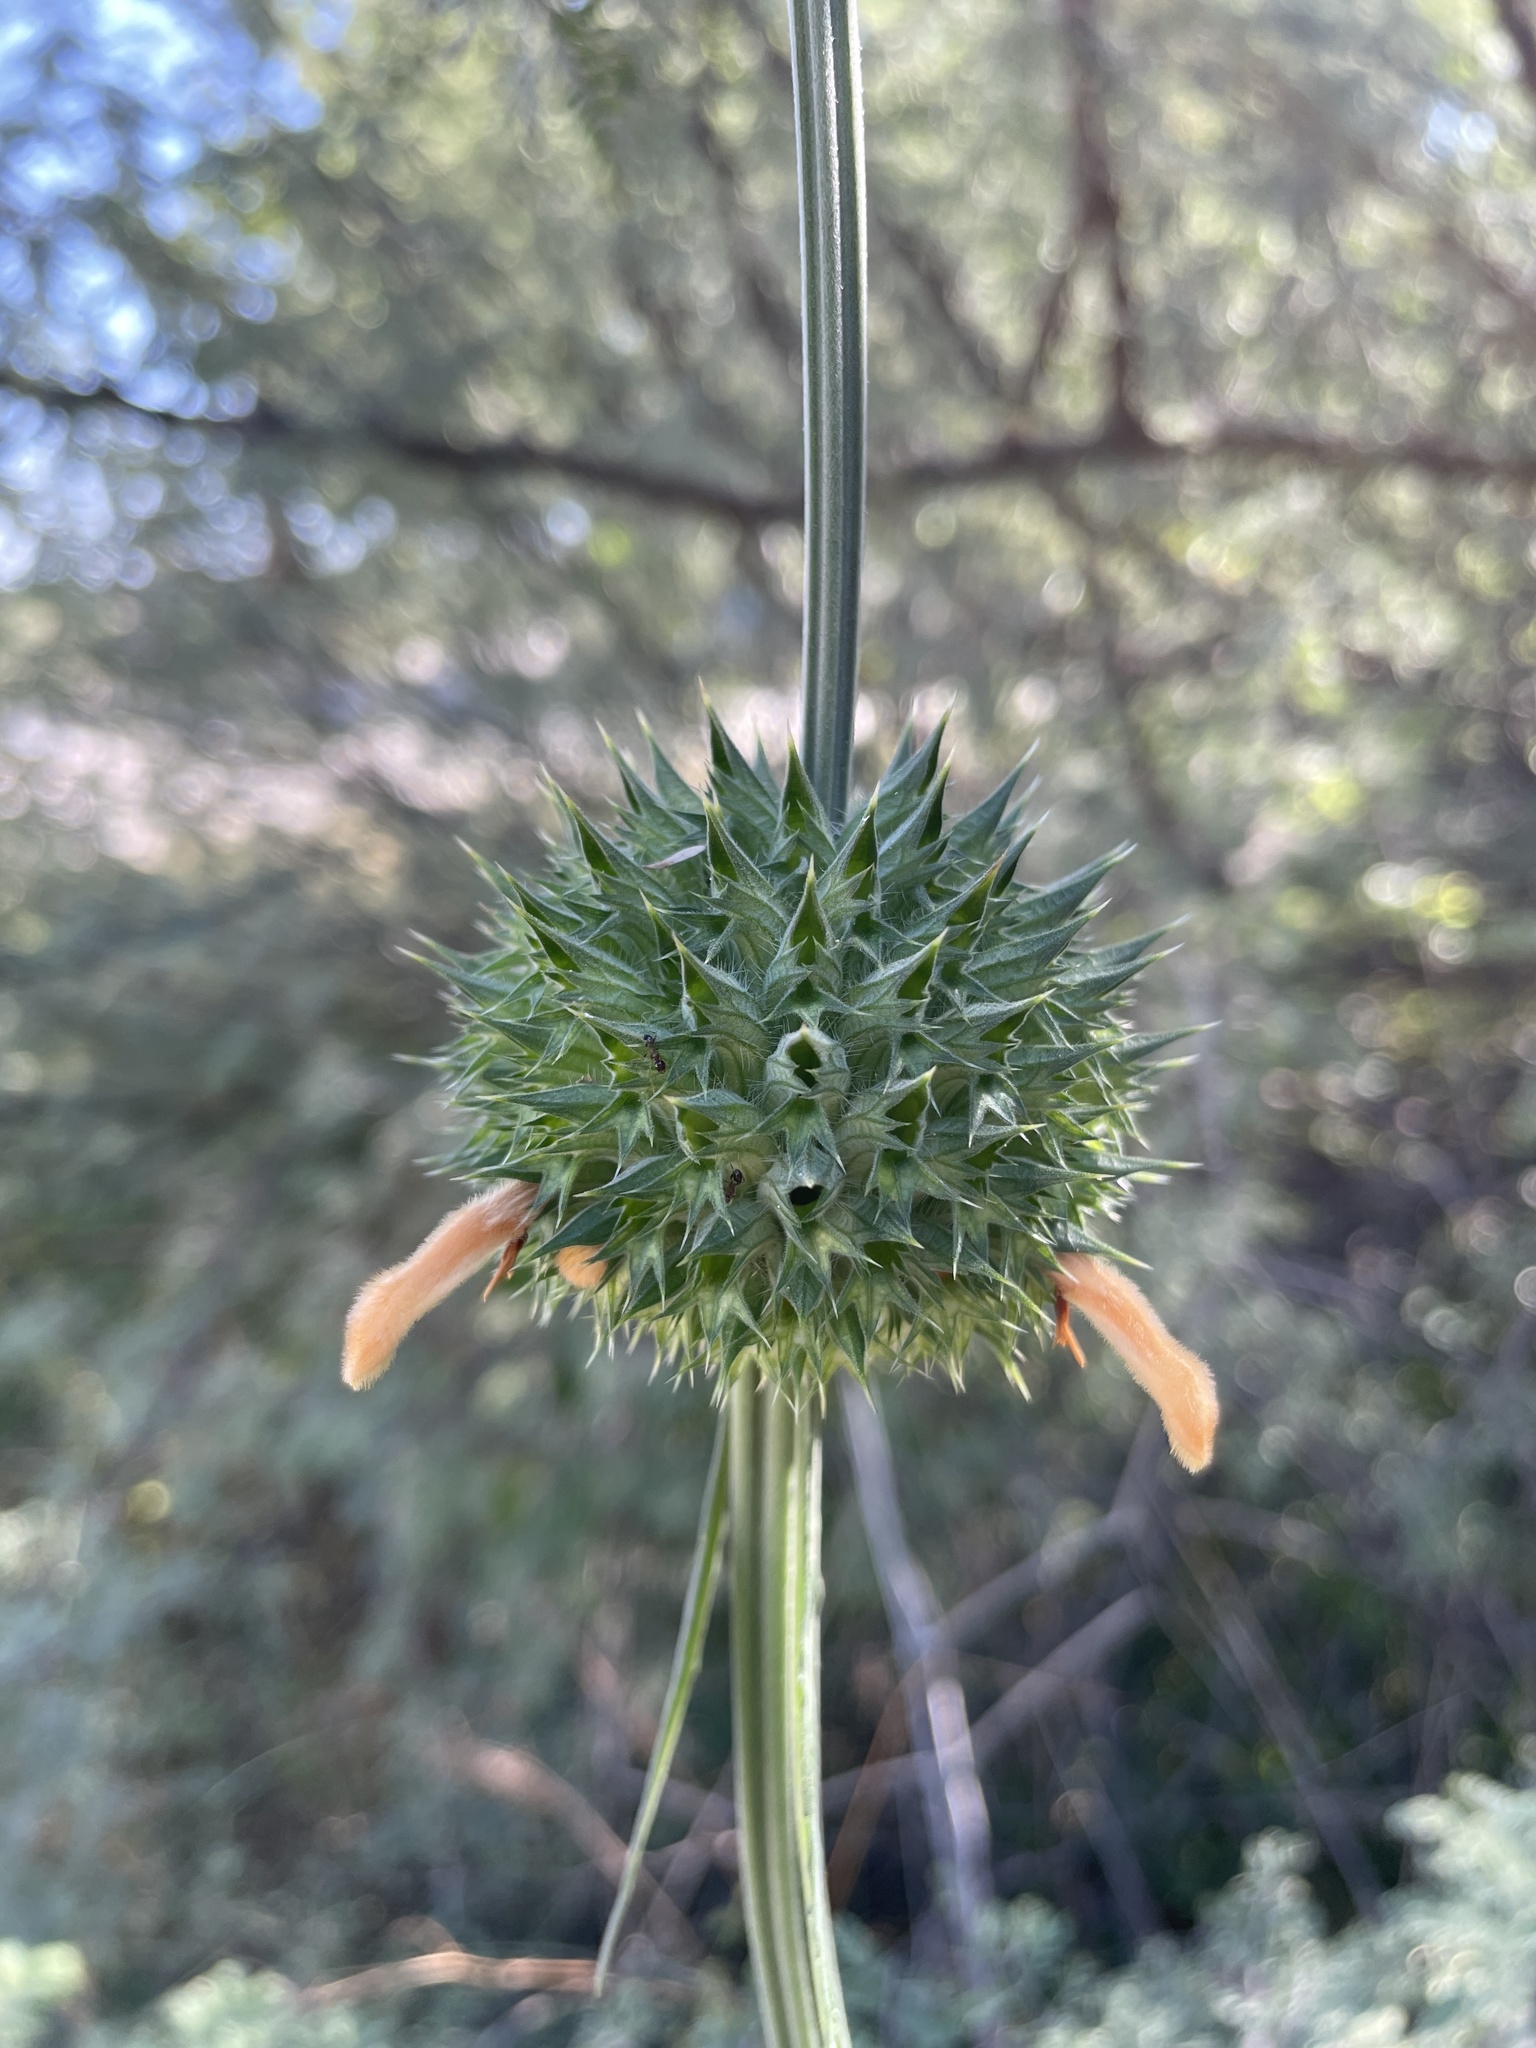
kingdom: Plantae
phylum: Tracheophyta
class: Magnoliopsida
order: Lamiales
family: Lamiaceae
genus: Leonotis
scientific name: Leonotis nepetifolia
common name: Christmas candlestick
